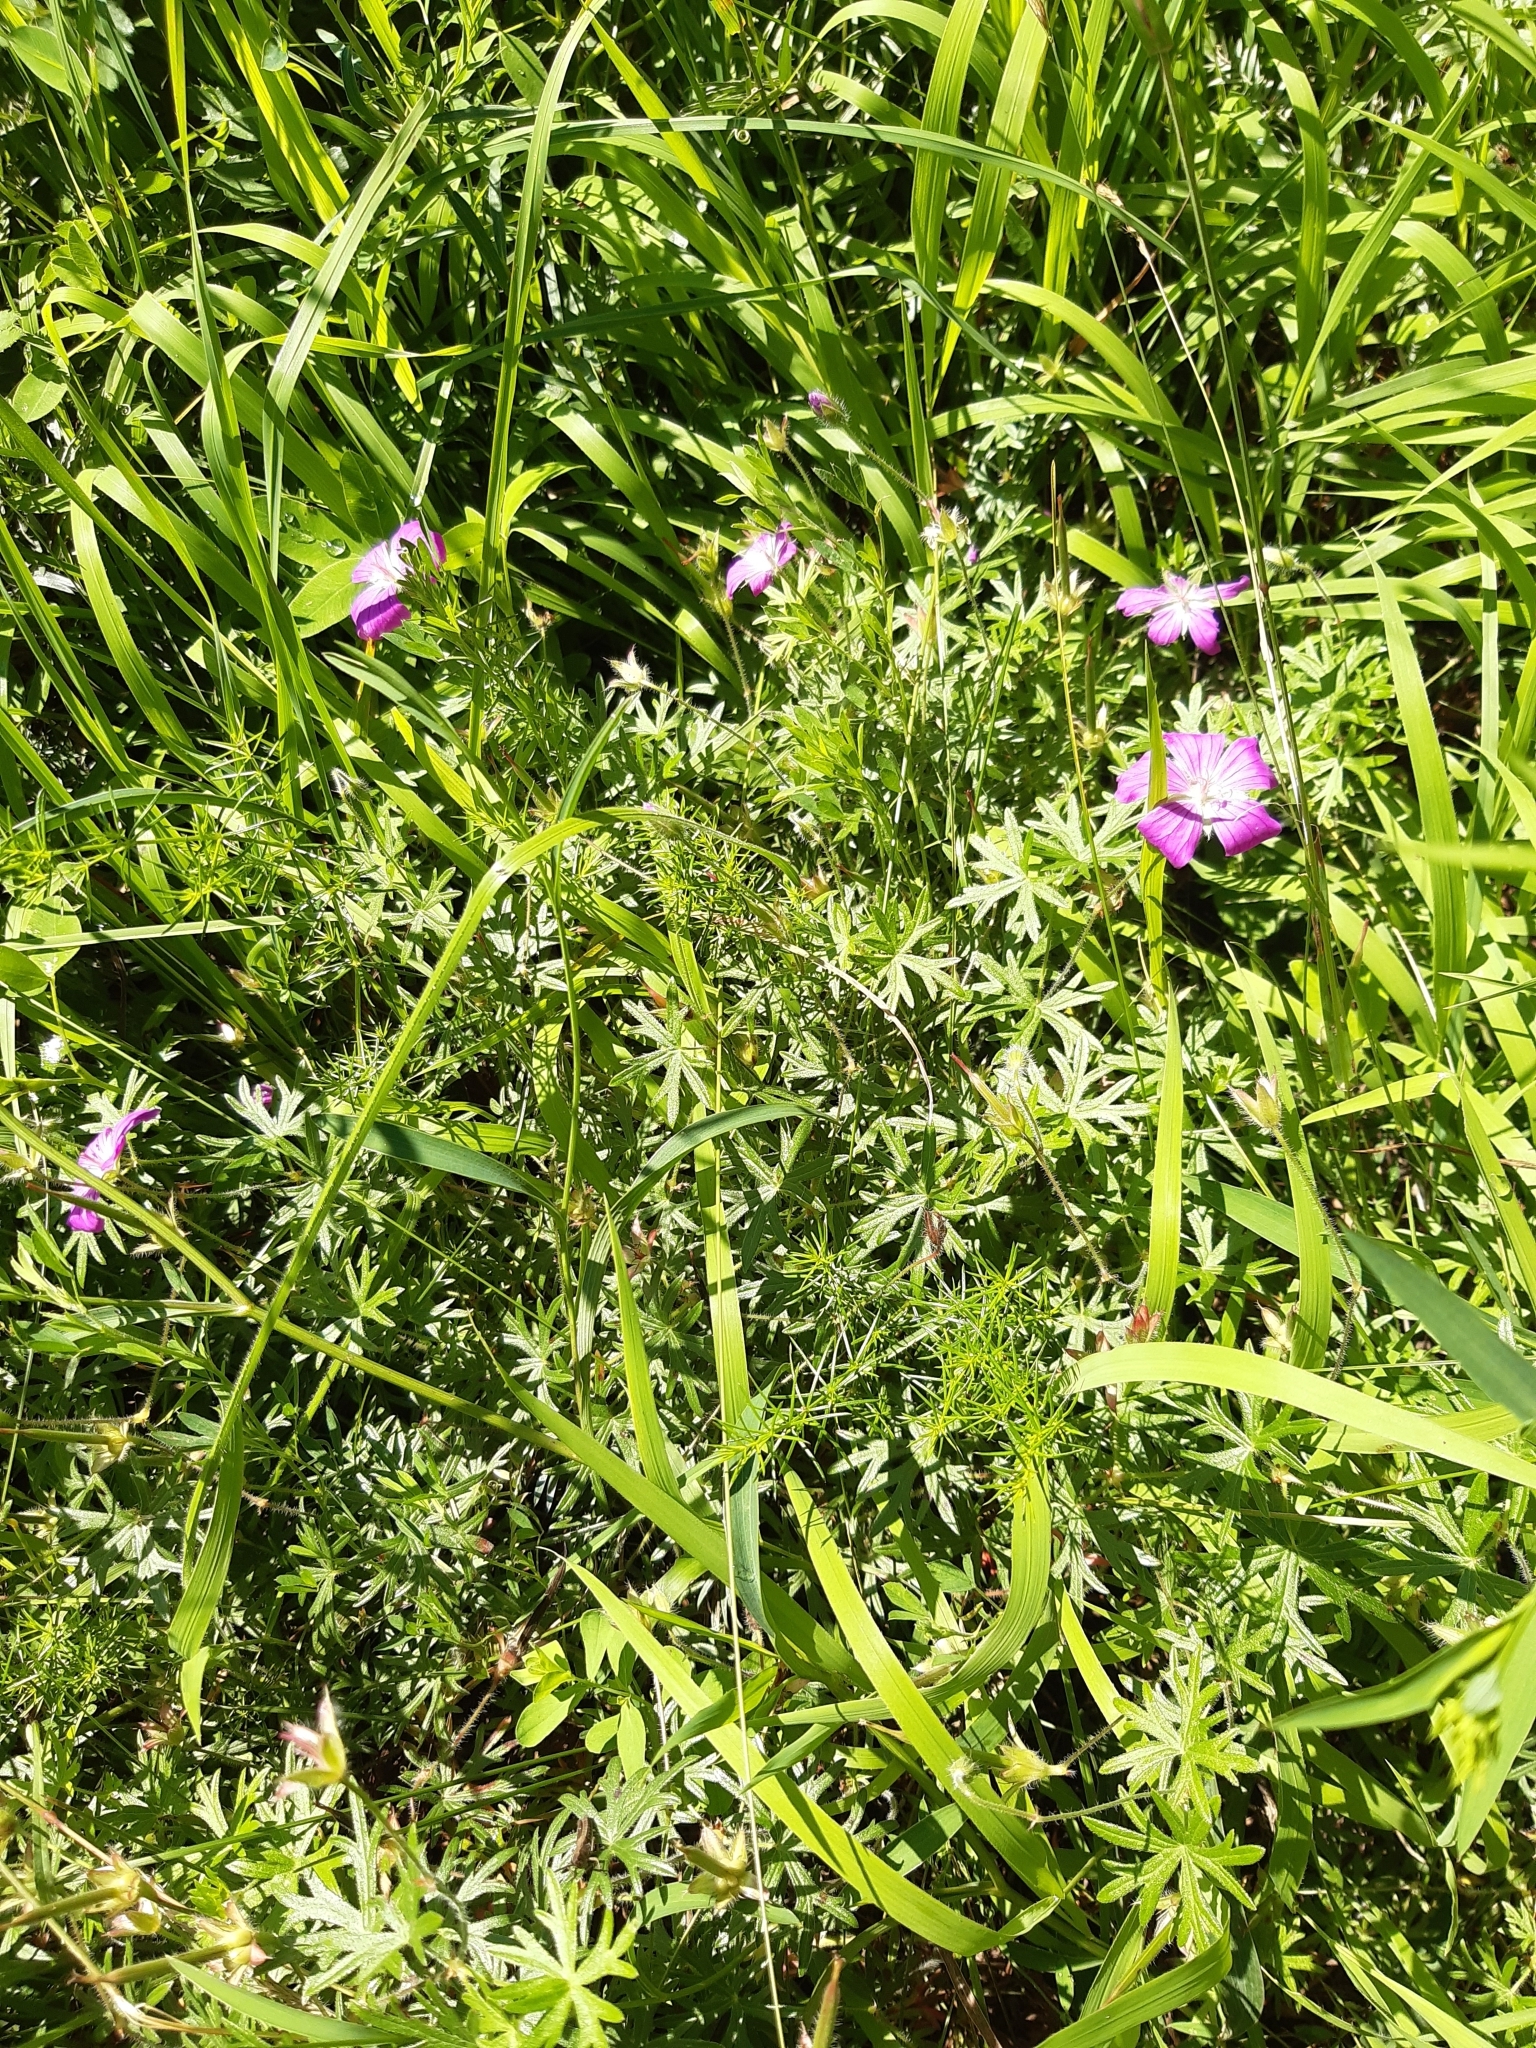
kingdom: Plantae
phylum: Tracheophyta
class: Magnoliopsida
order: Geraniales
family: Geraniaceae
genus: Geranium
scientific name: Geranium sanguineum
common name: Bloody crane's-bill
